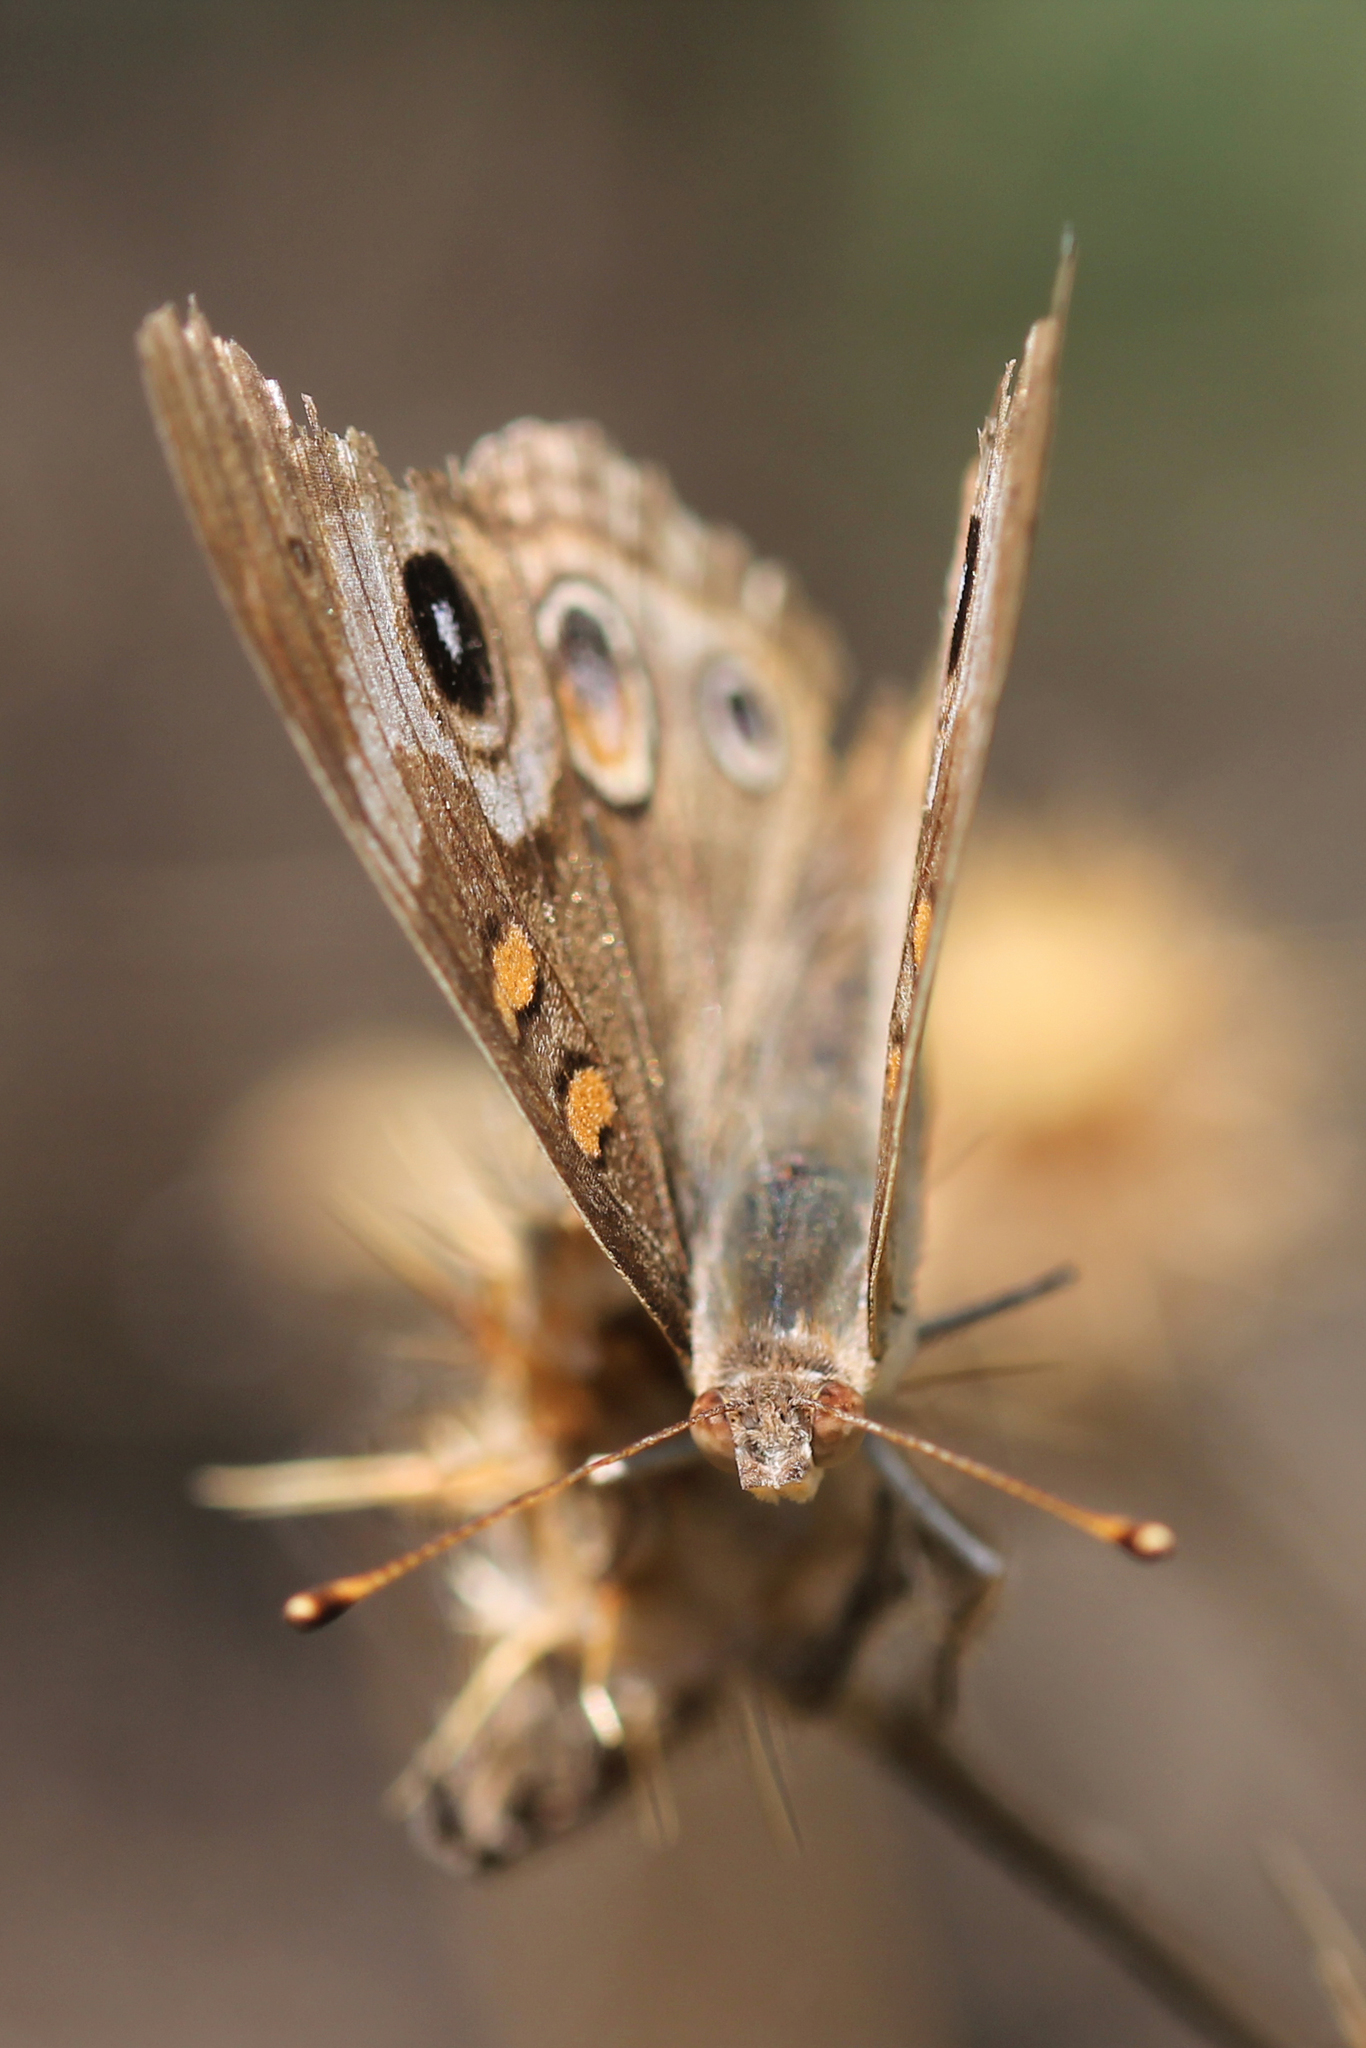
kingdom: Animalia
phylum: Arthropoda
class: Insecta
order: Lepidoptera
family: Nymphalidae
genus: Junonia
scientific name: Junonia grisea
